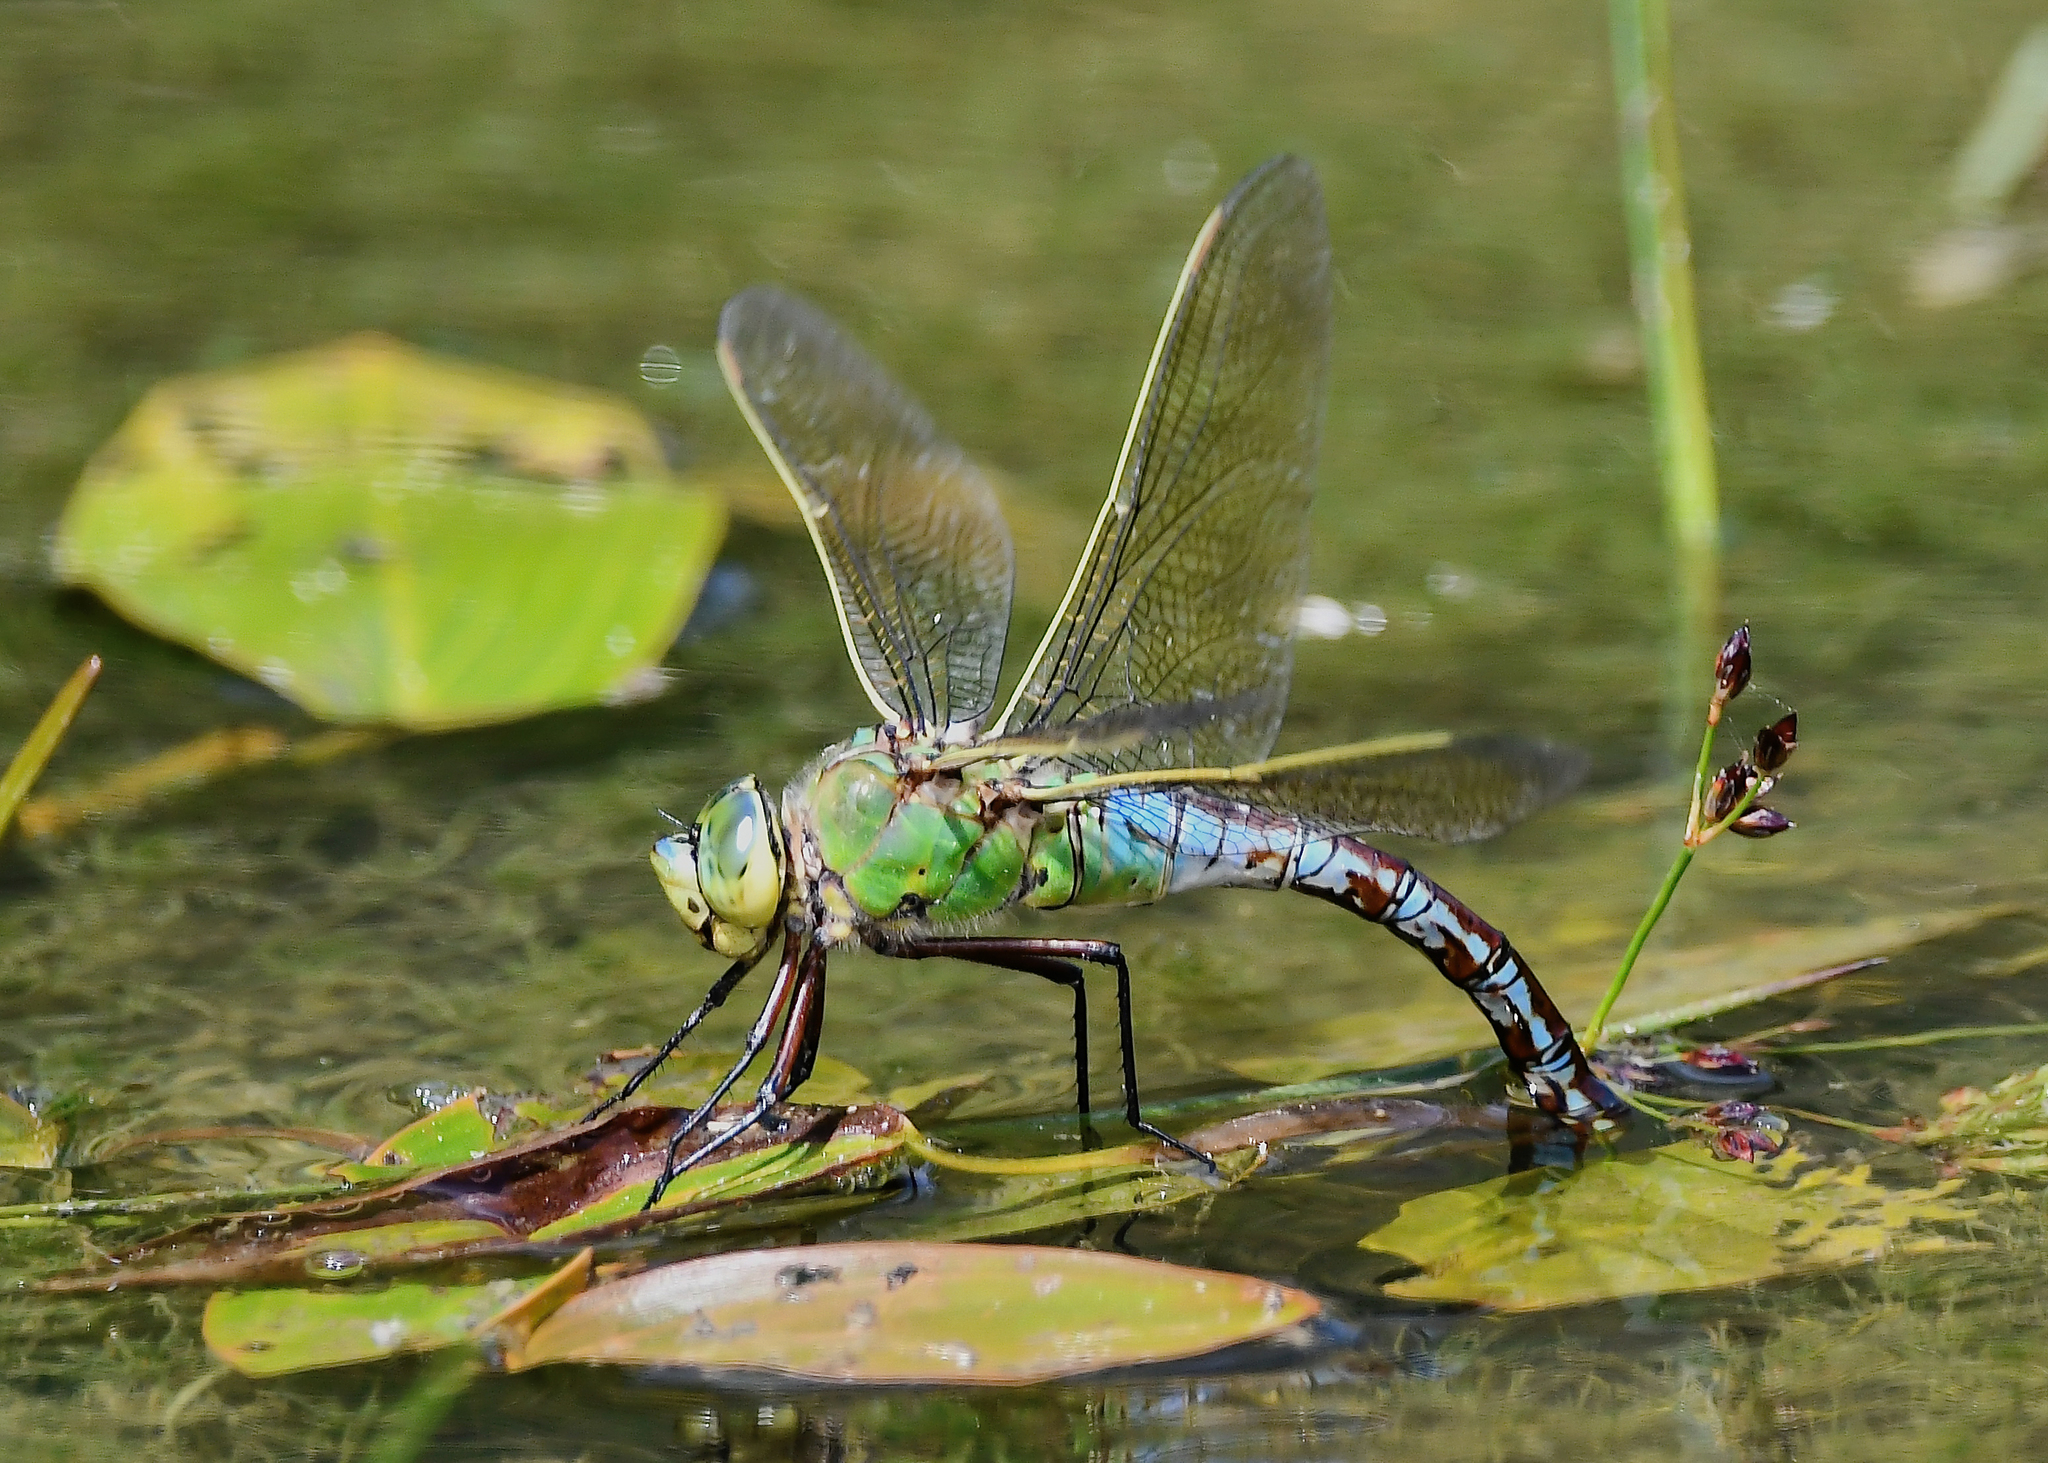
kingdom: Animalia
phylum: Arthropoda
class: Insecta
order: Odonata
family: Aeshnidae
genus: Anax
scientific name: Anax imperator
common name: Emperor dragonfly
